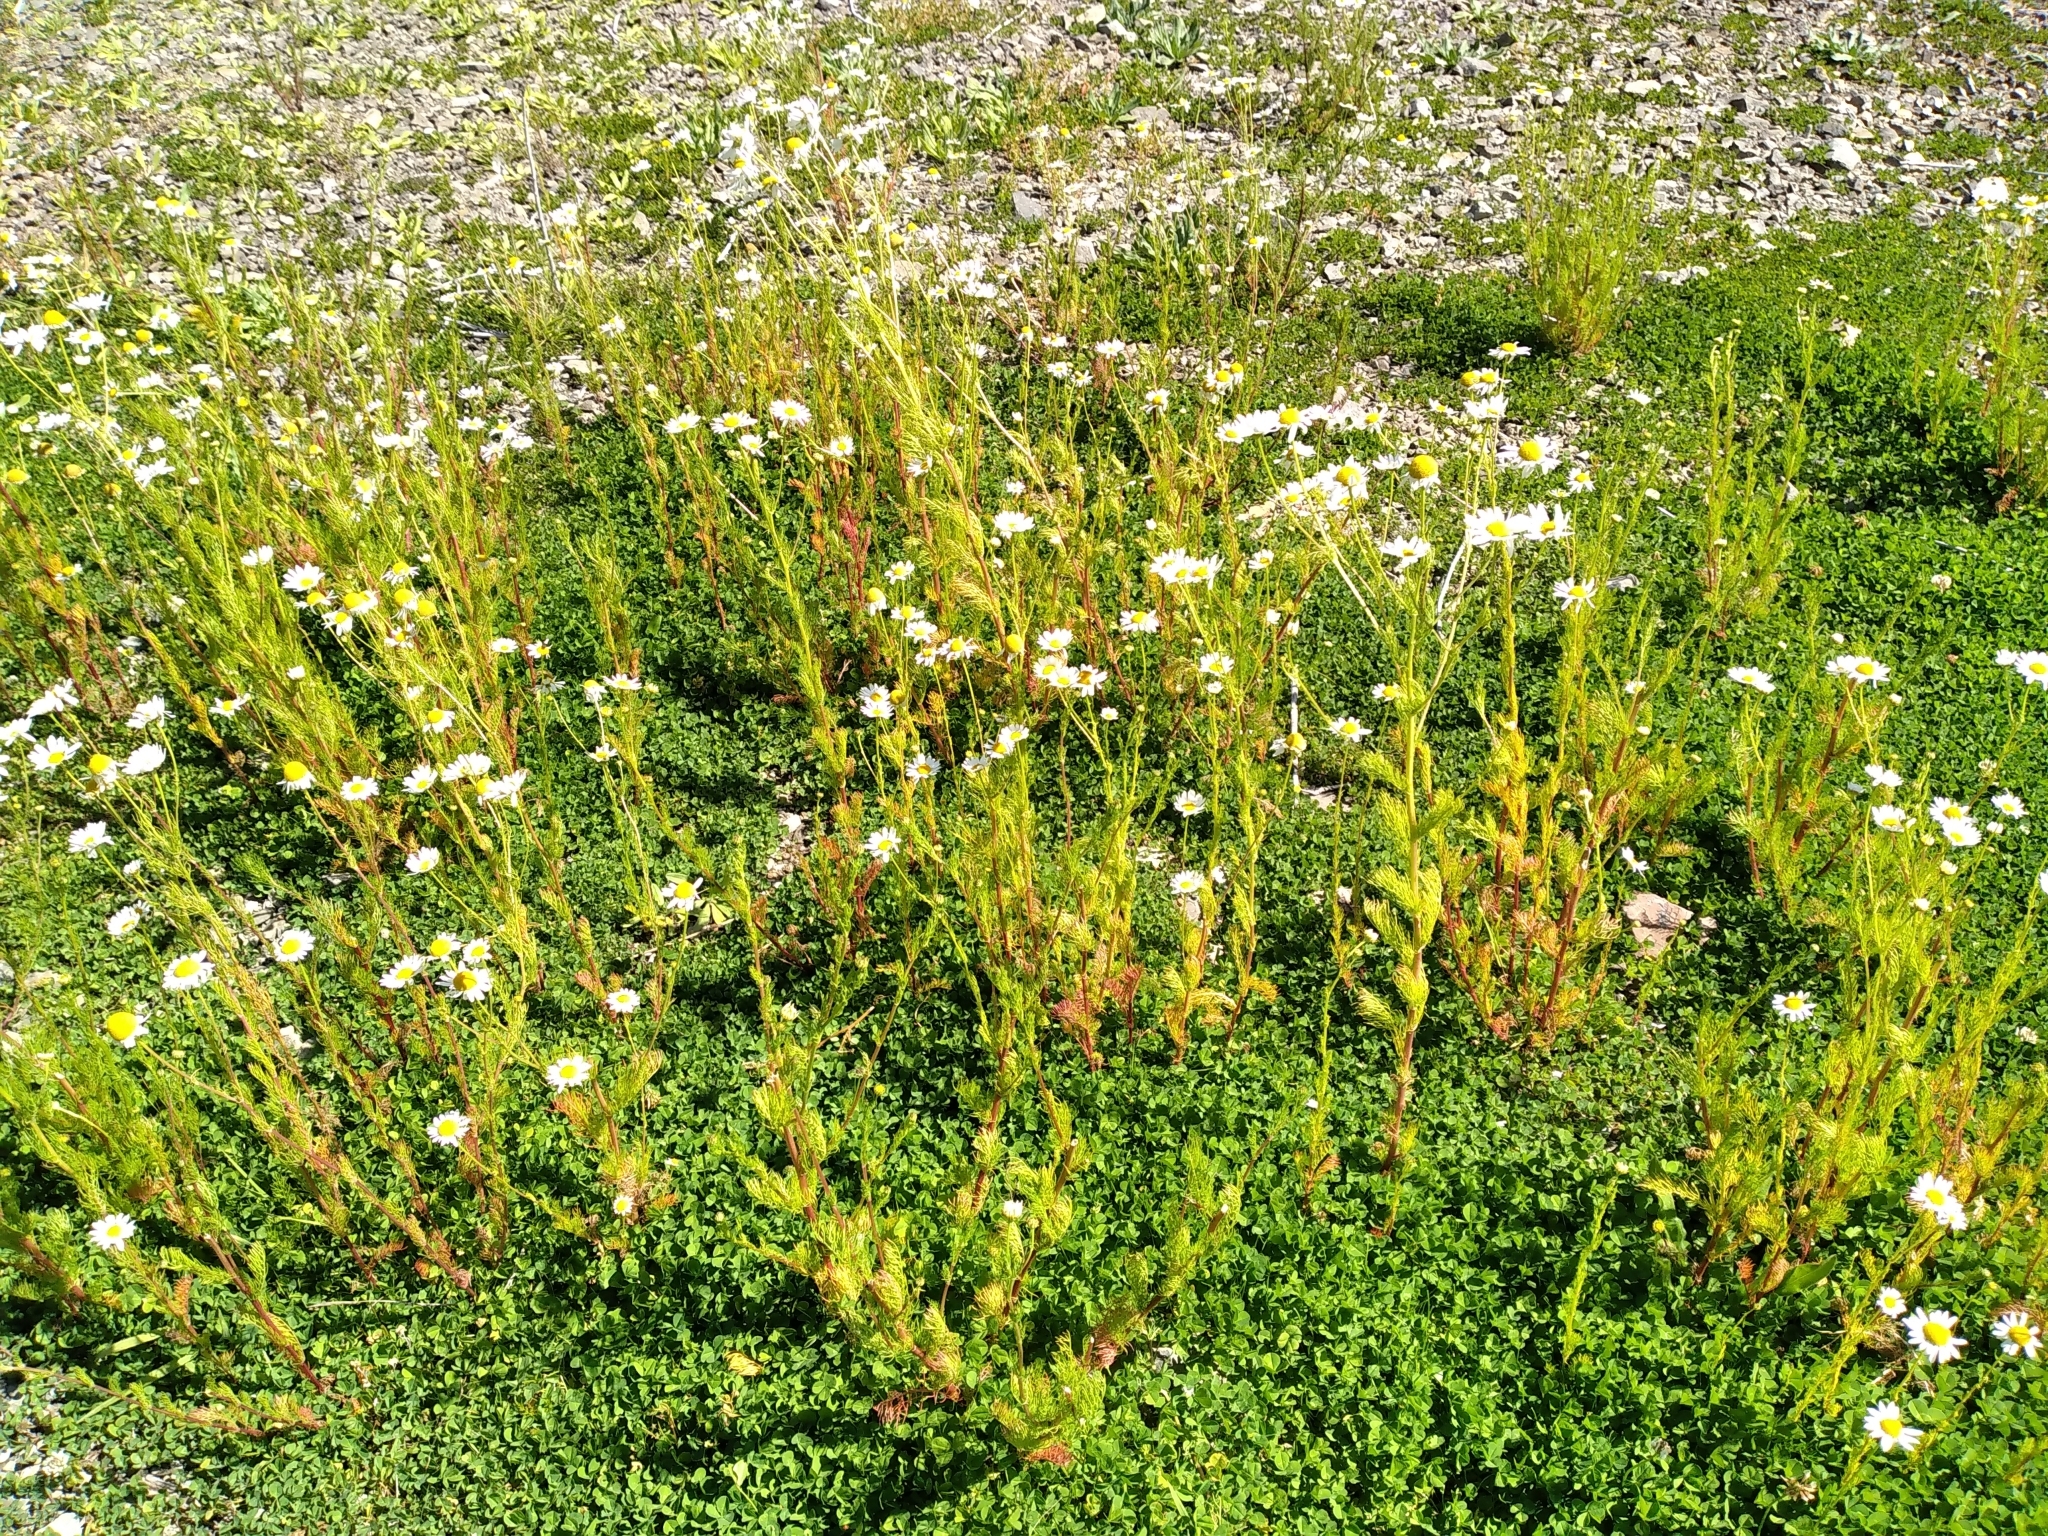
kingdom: Plantae
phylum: Tracheophyta
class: Magnoliopsida
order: Asterales
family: Asteraceae
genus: Tripleurospermum
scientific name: Tripleurospermum inodorum
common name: Scentless mayweed
